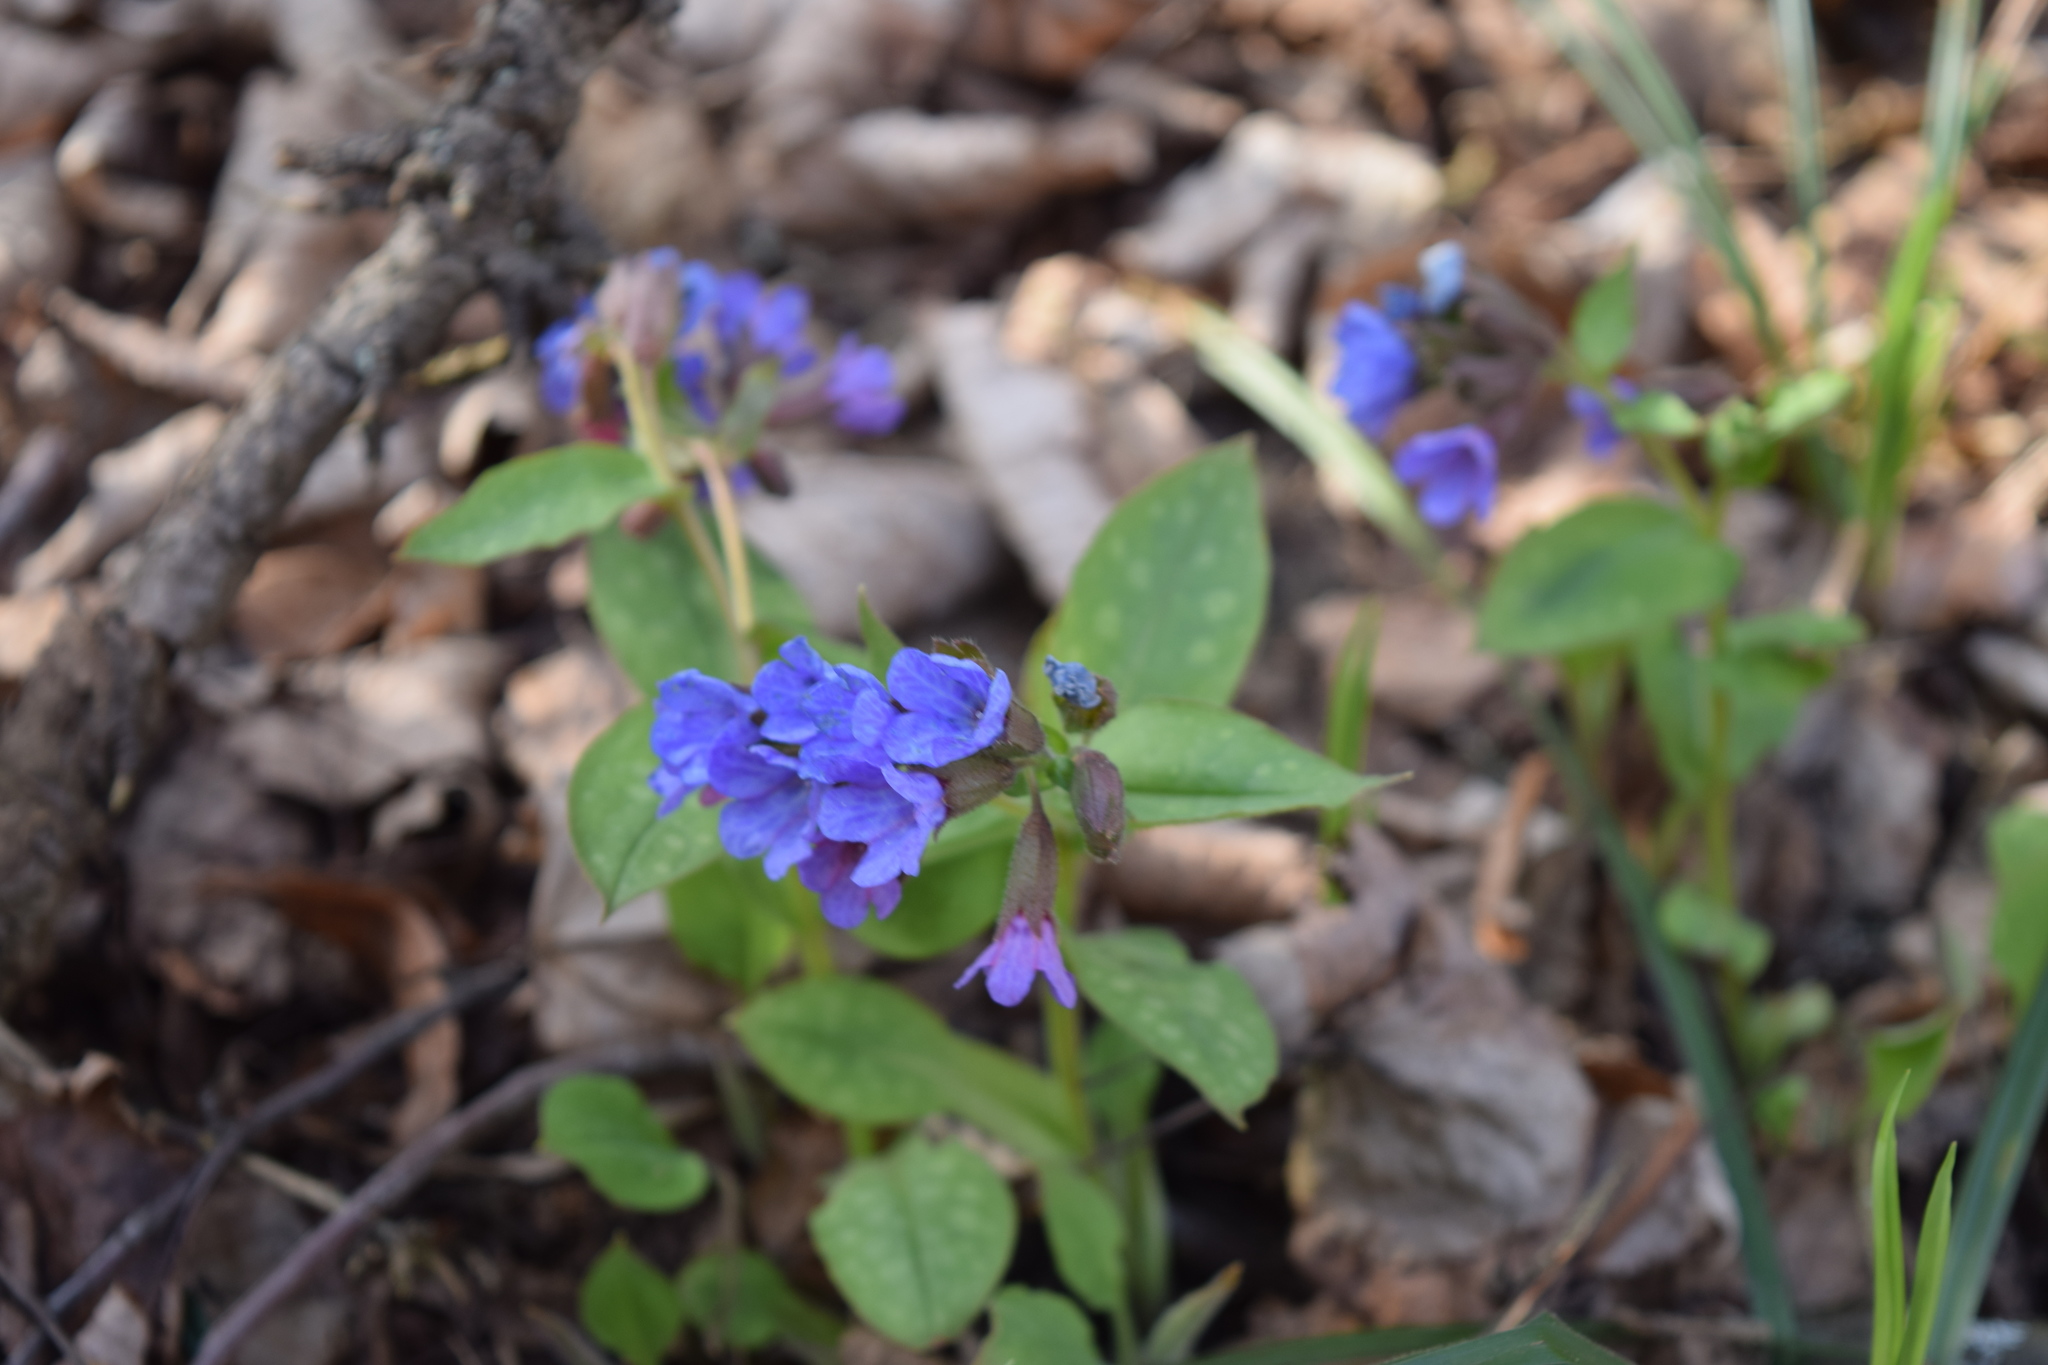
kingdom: Plantae
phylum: Tracheophyta
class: Magnoliopsida
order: Boraginales
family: Boraginaceae
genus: Pulmonaria
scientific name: Pulmonaria obscura
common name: Suffolk lungwort
